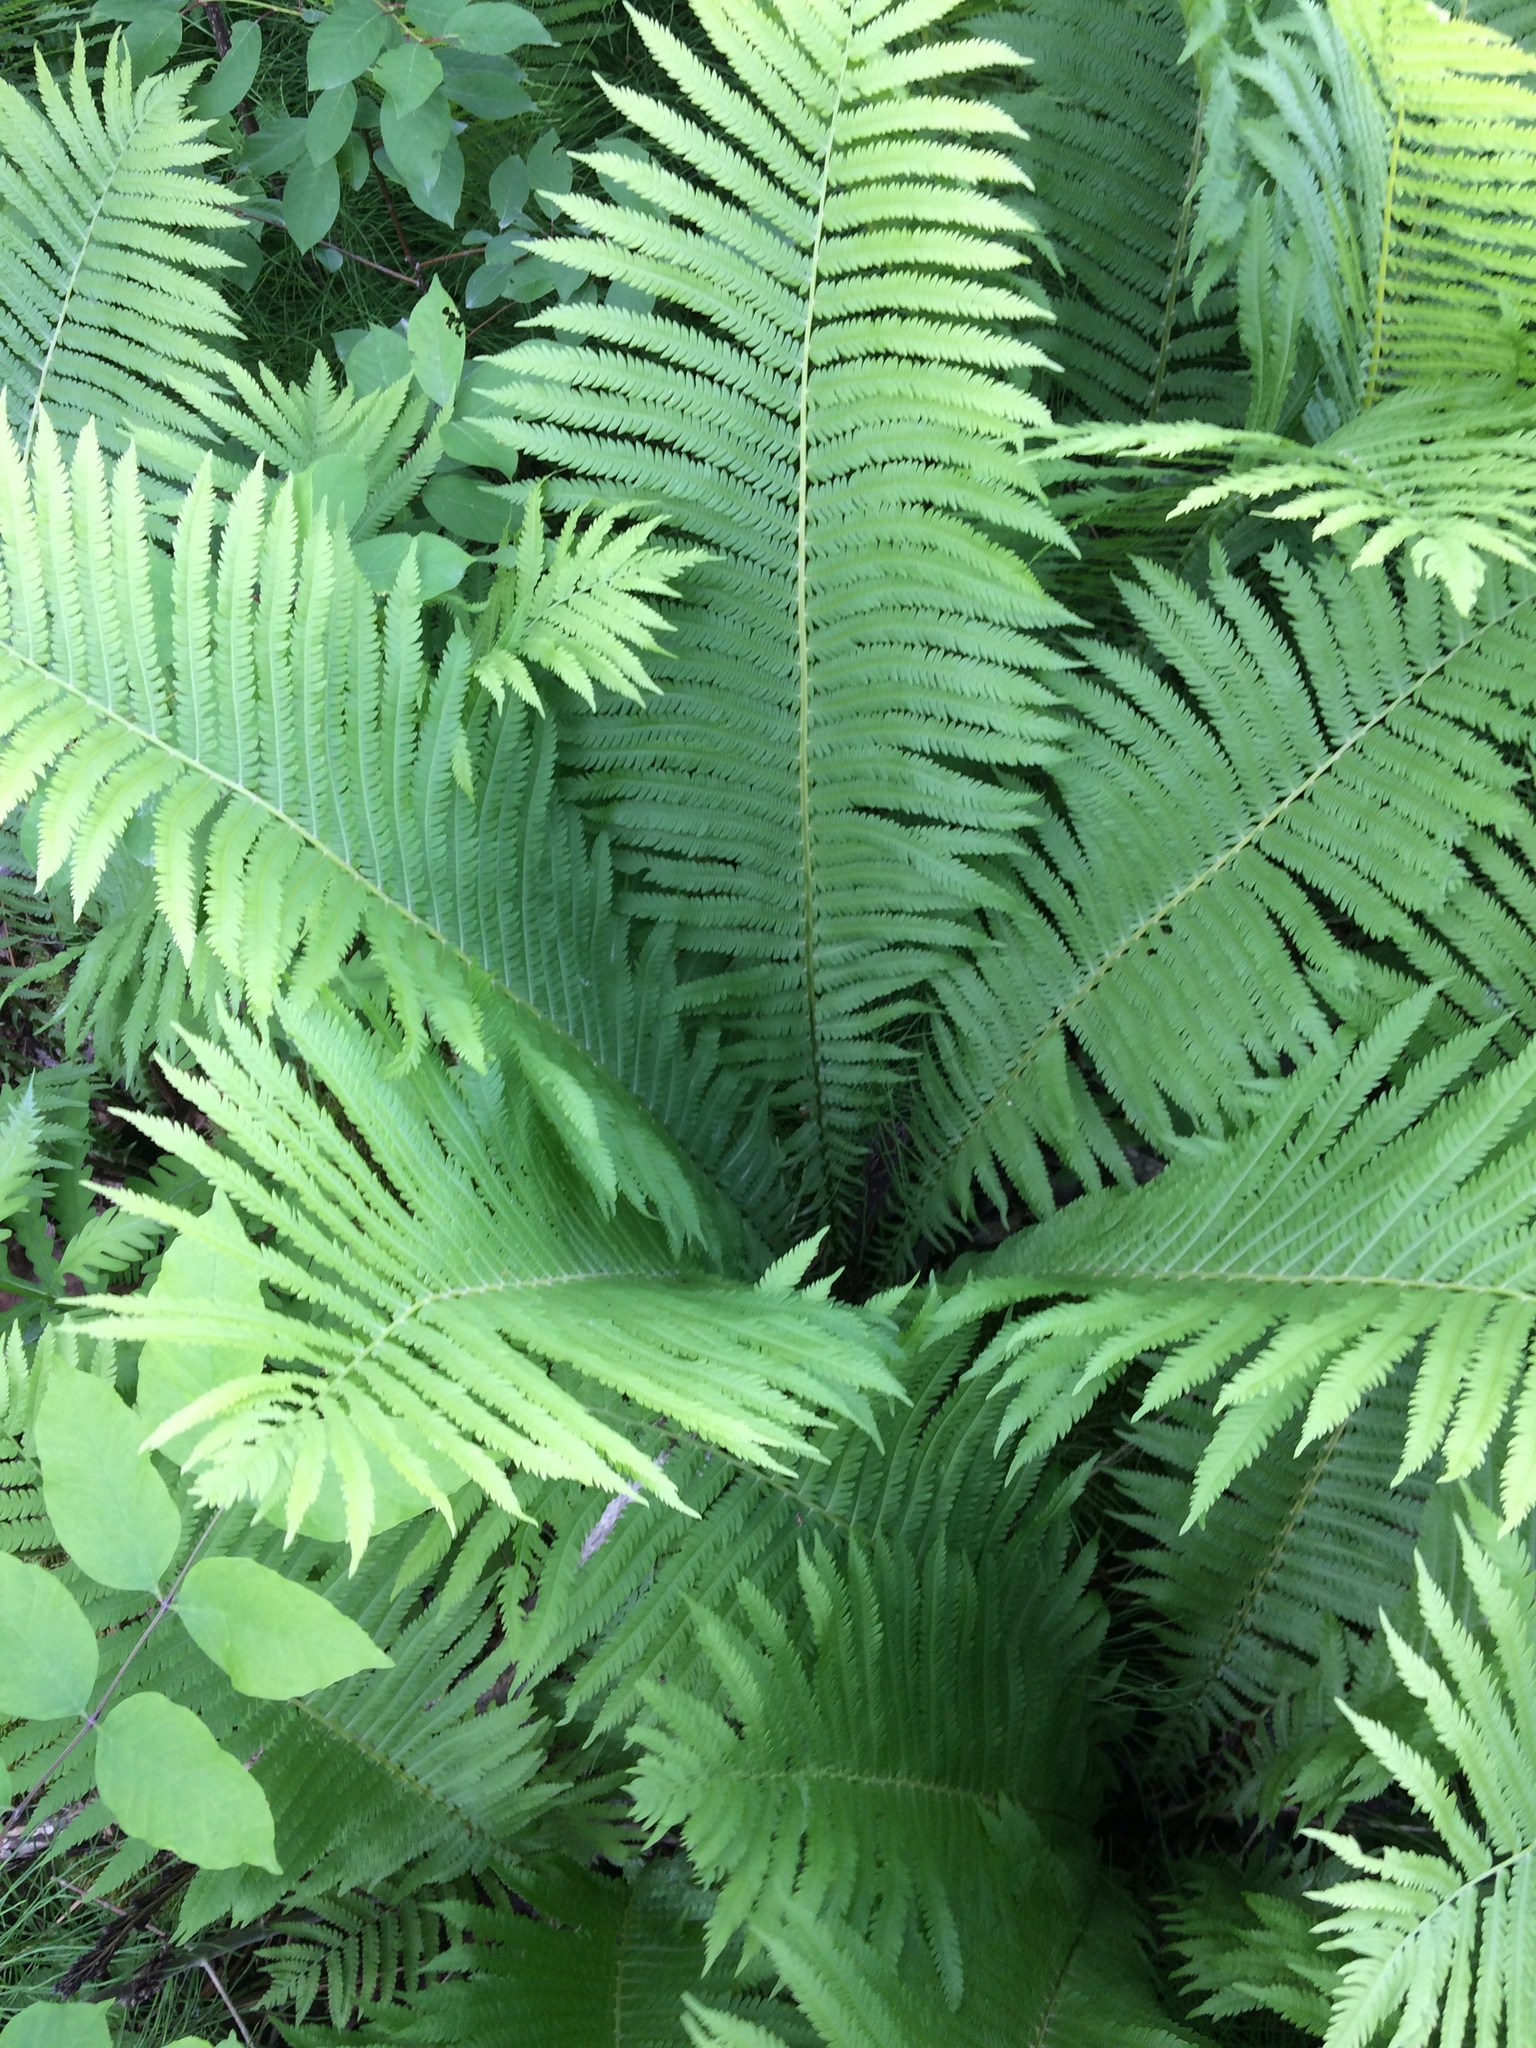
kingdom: Plantae
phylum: Tracheophyta
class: Polypodiopsida
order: Polypodiales
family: Onocleaceae
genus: Matteuccia
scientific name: Matteuccia struthiopteris
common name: Ostrich fern
